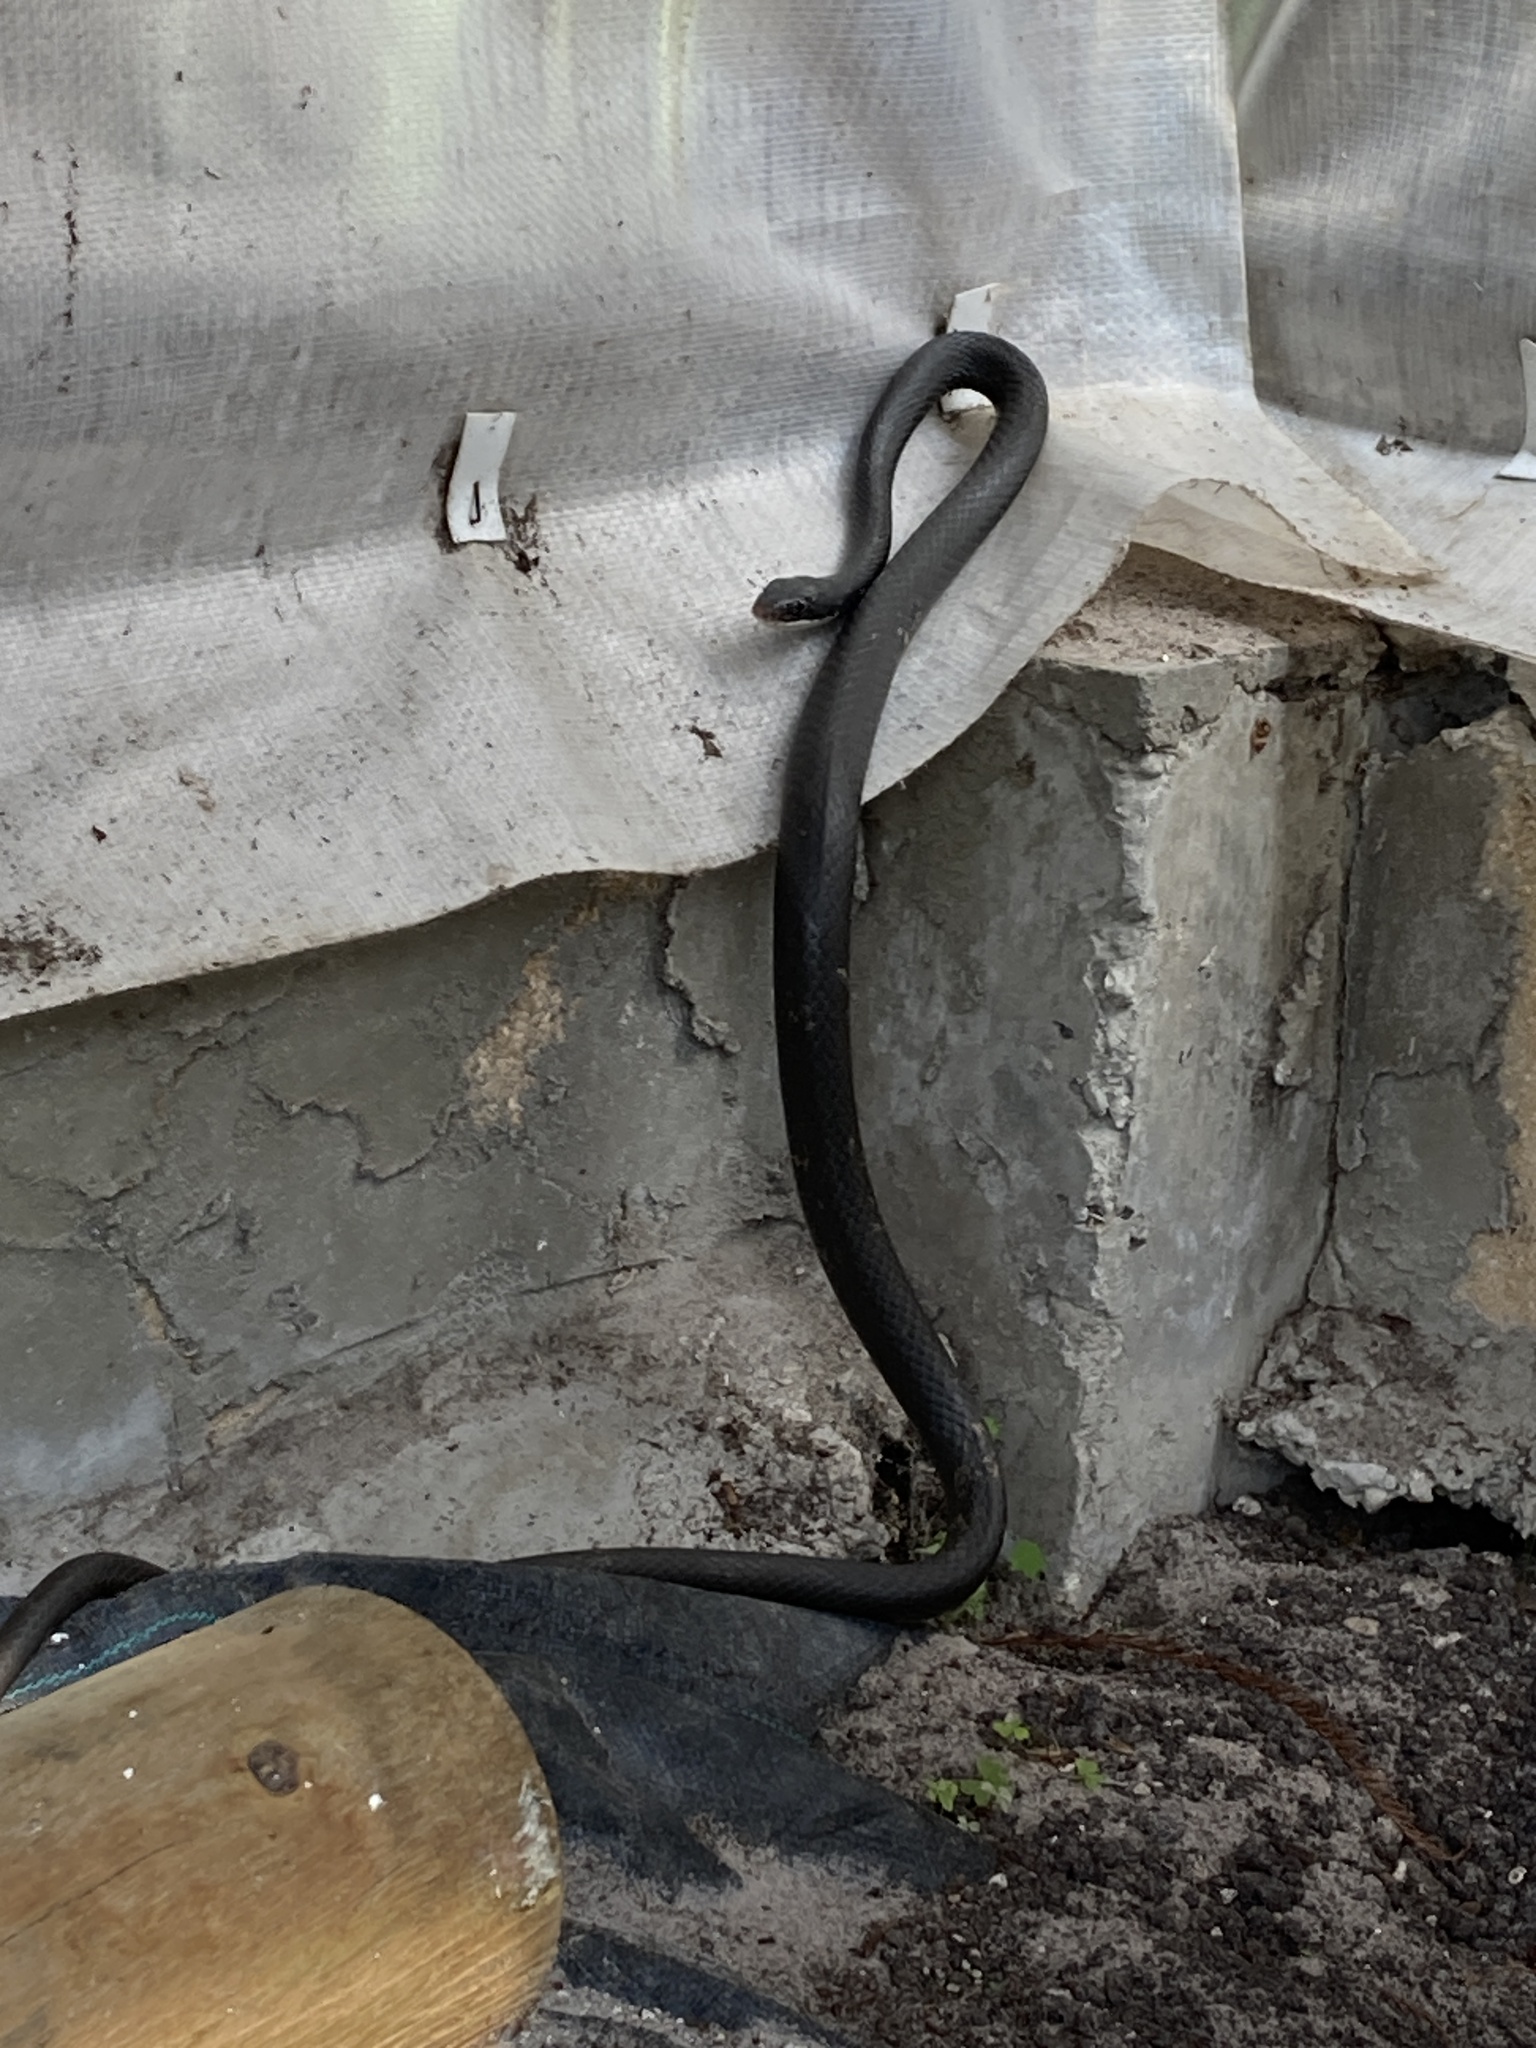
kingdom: Animalia
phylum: Chordata
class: Squamata
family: Colubridae
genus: Coluber
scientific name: Coluber constrictor
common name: Eastern racer
